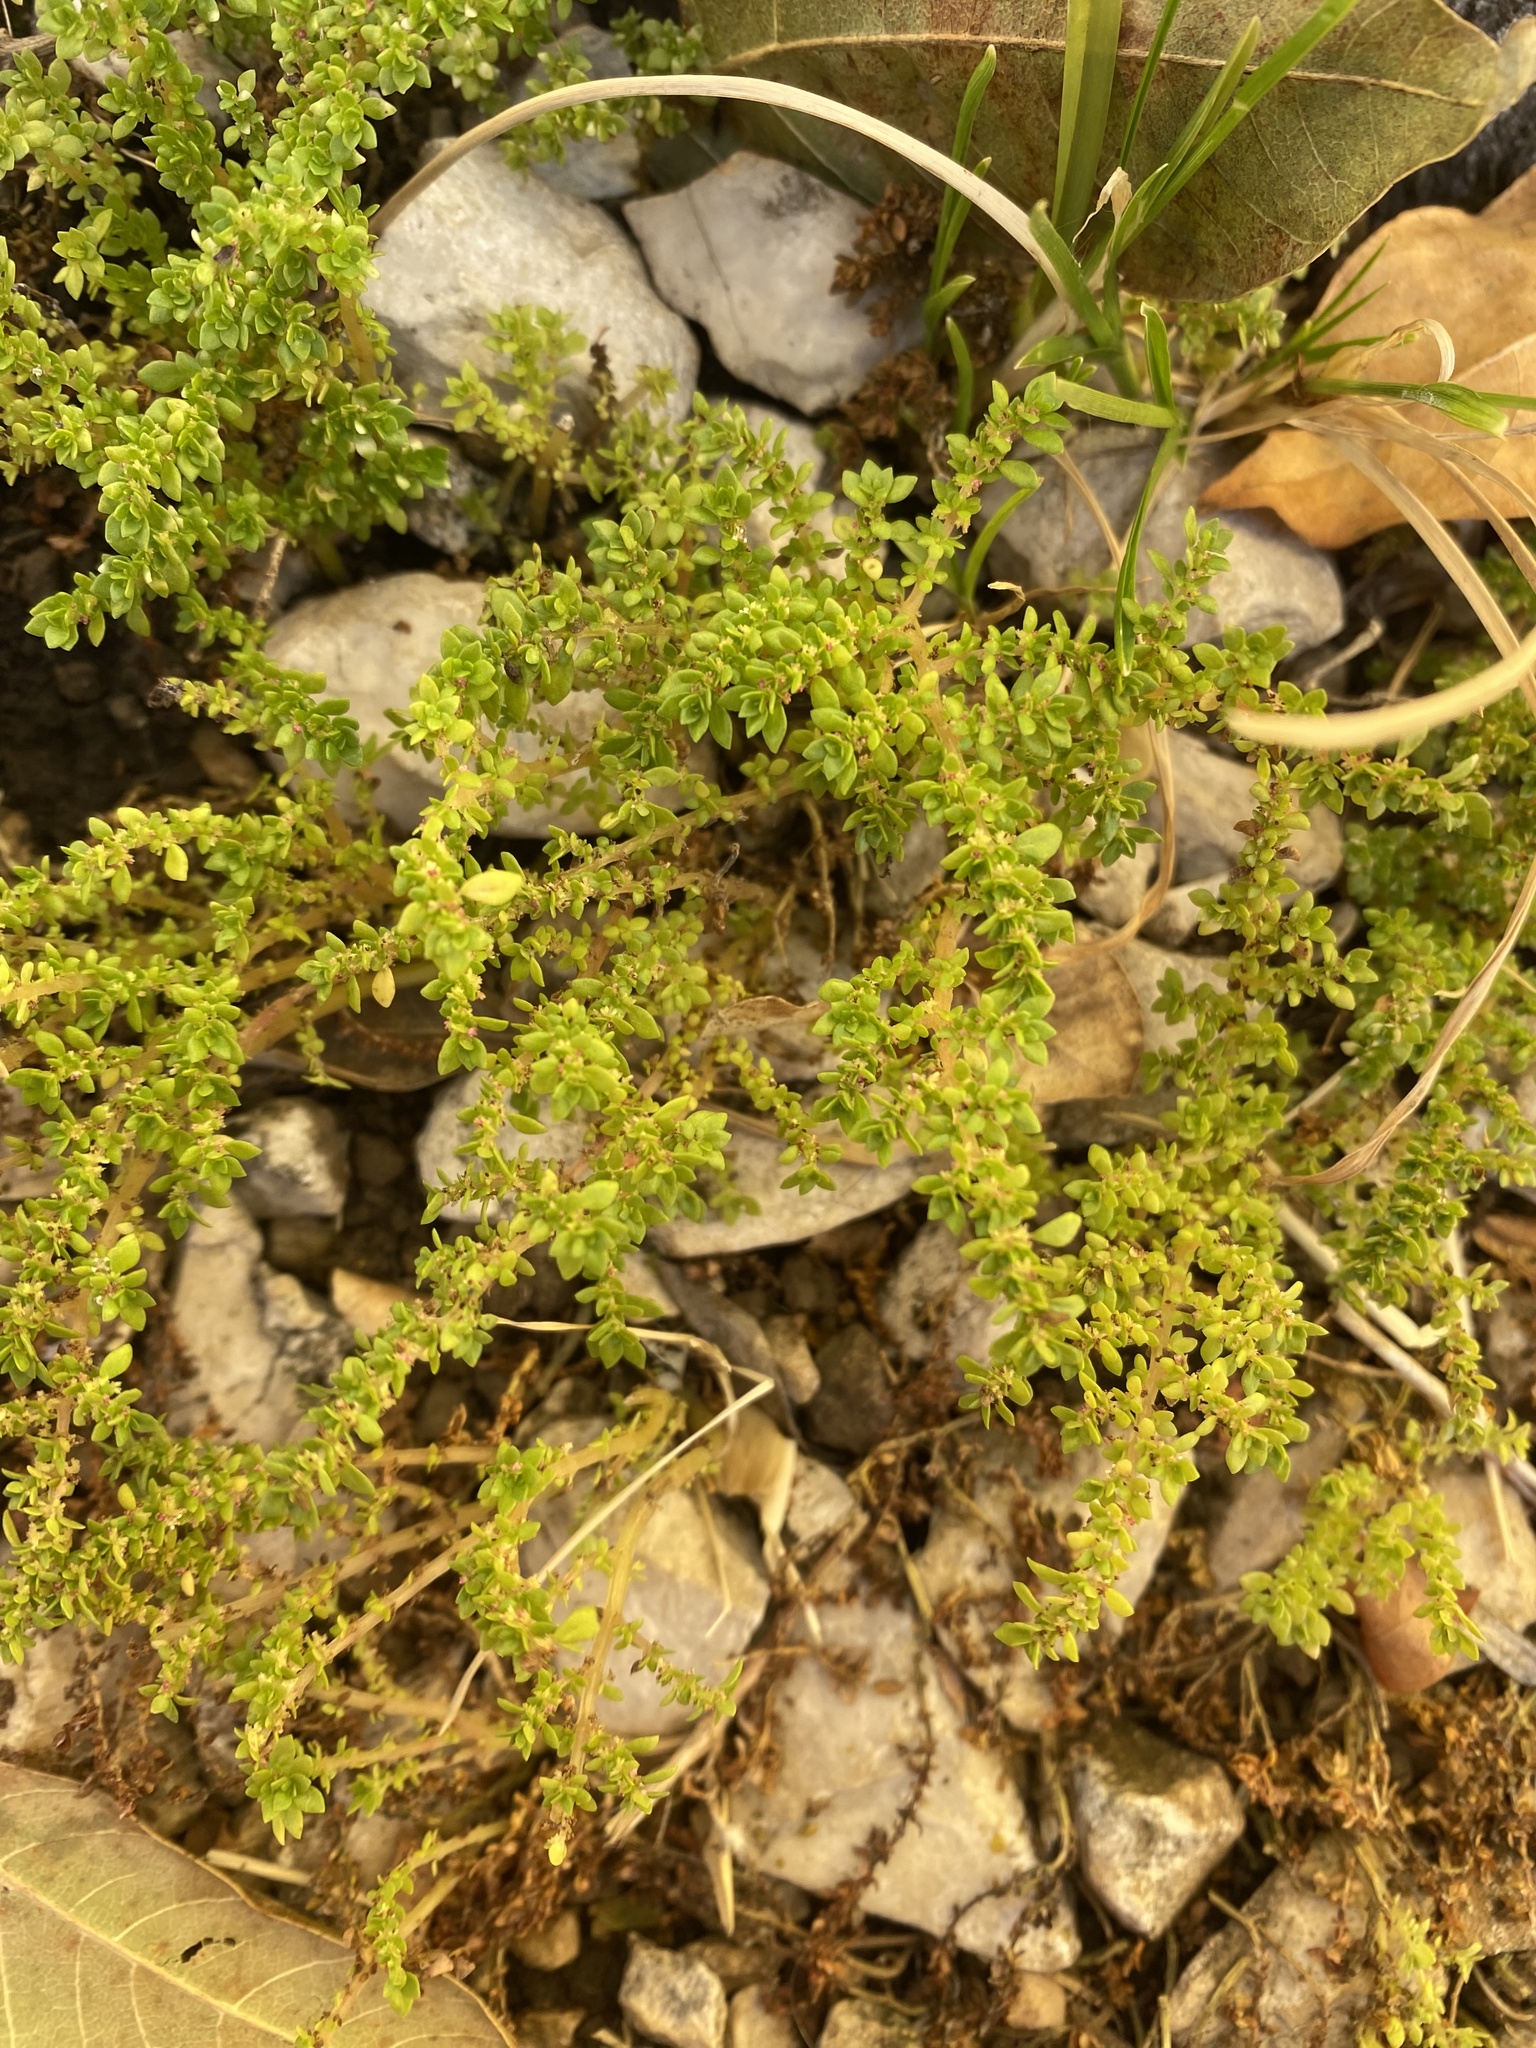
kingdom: Plantae
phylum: Tracheophyta
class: Magnoliopsida
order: Rosales
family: Urticaceae
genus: Pilea
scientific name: Pilea microphylla
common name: Artillery-plant
